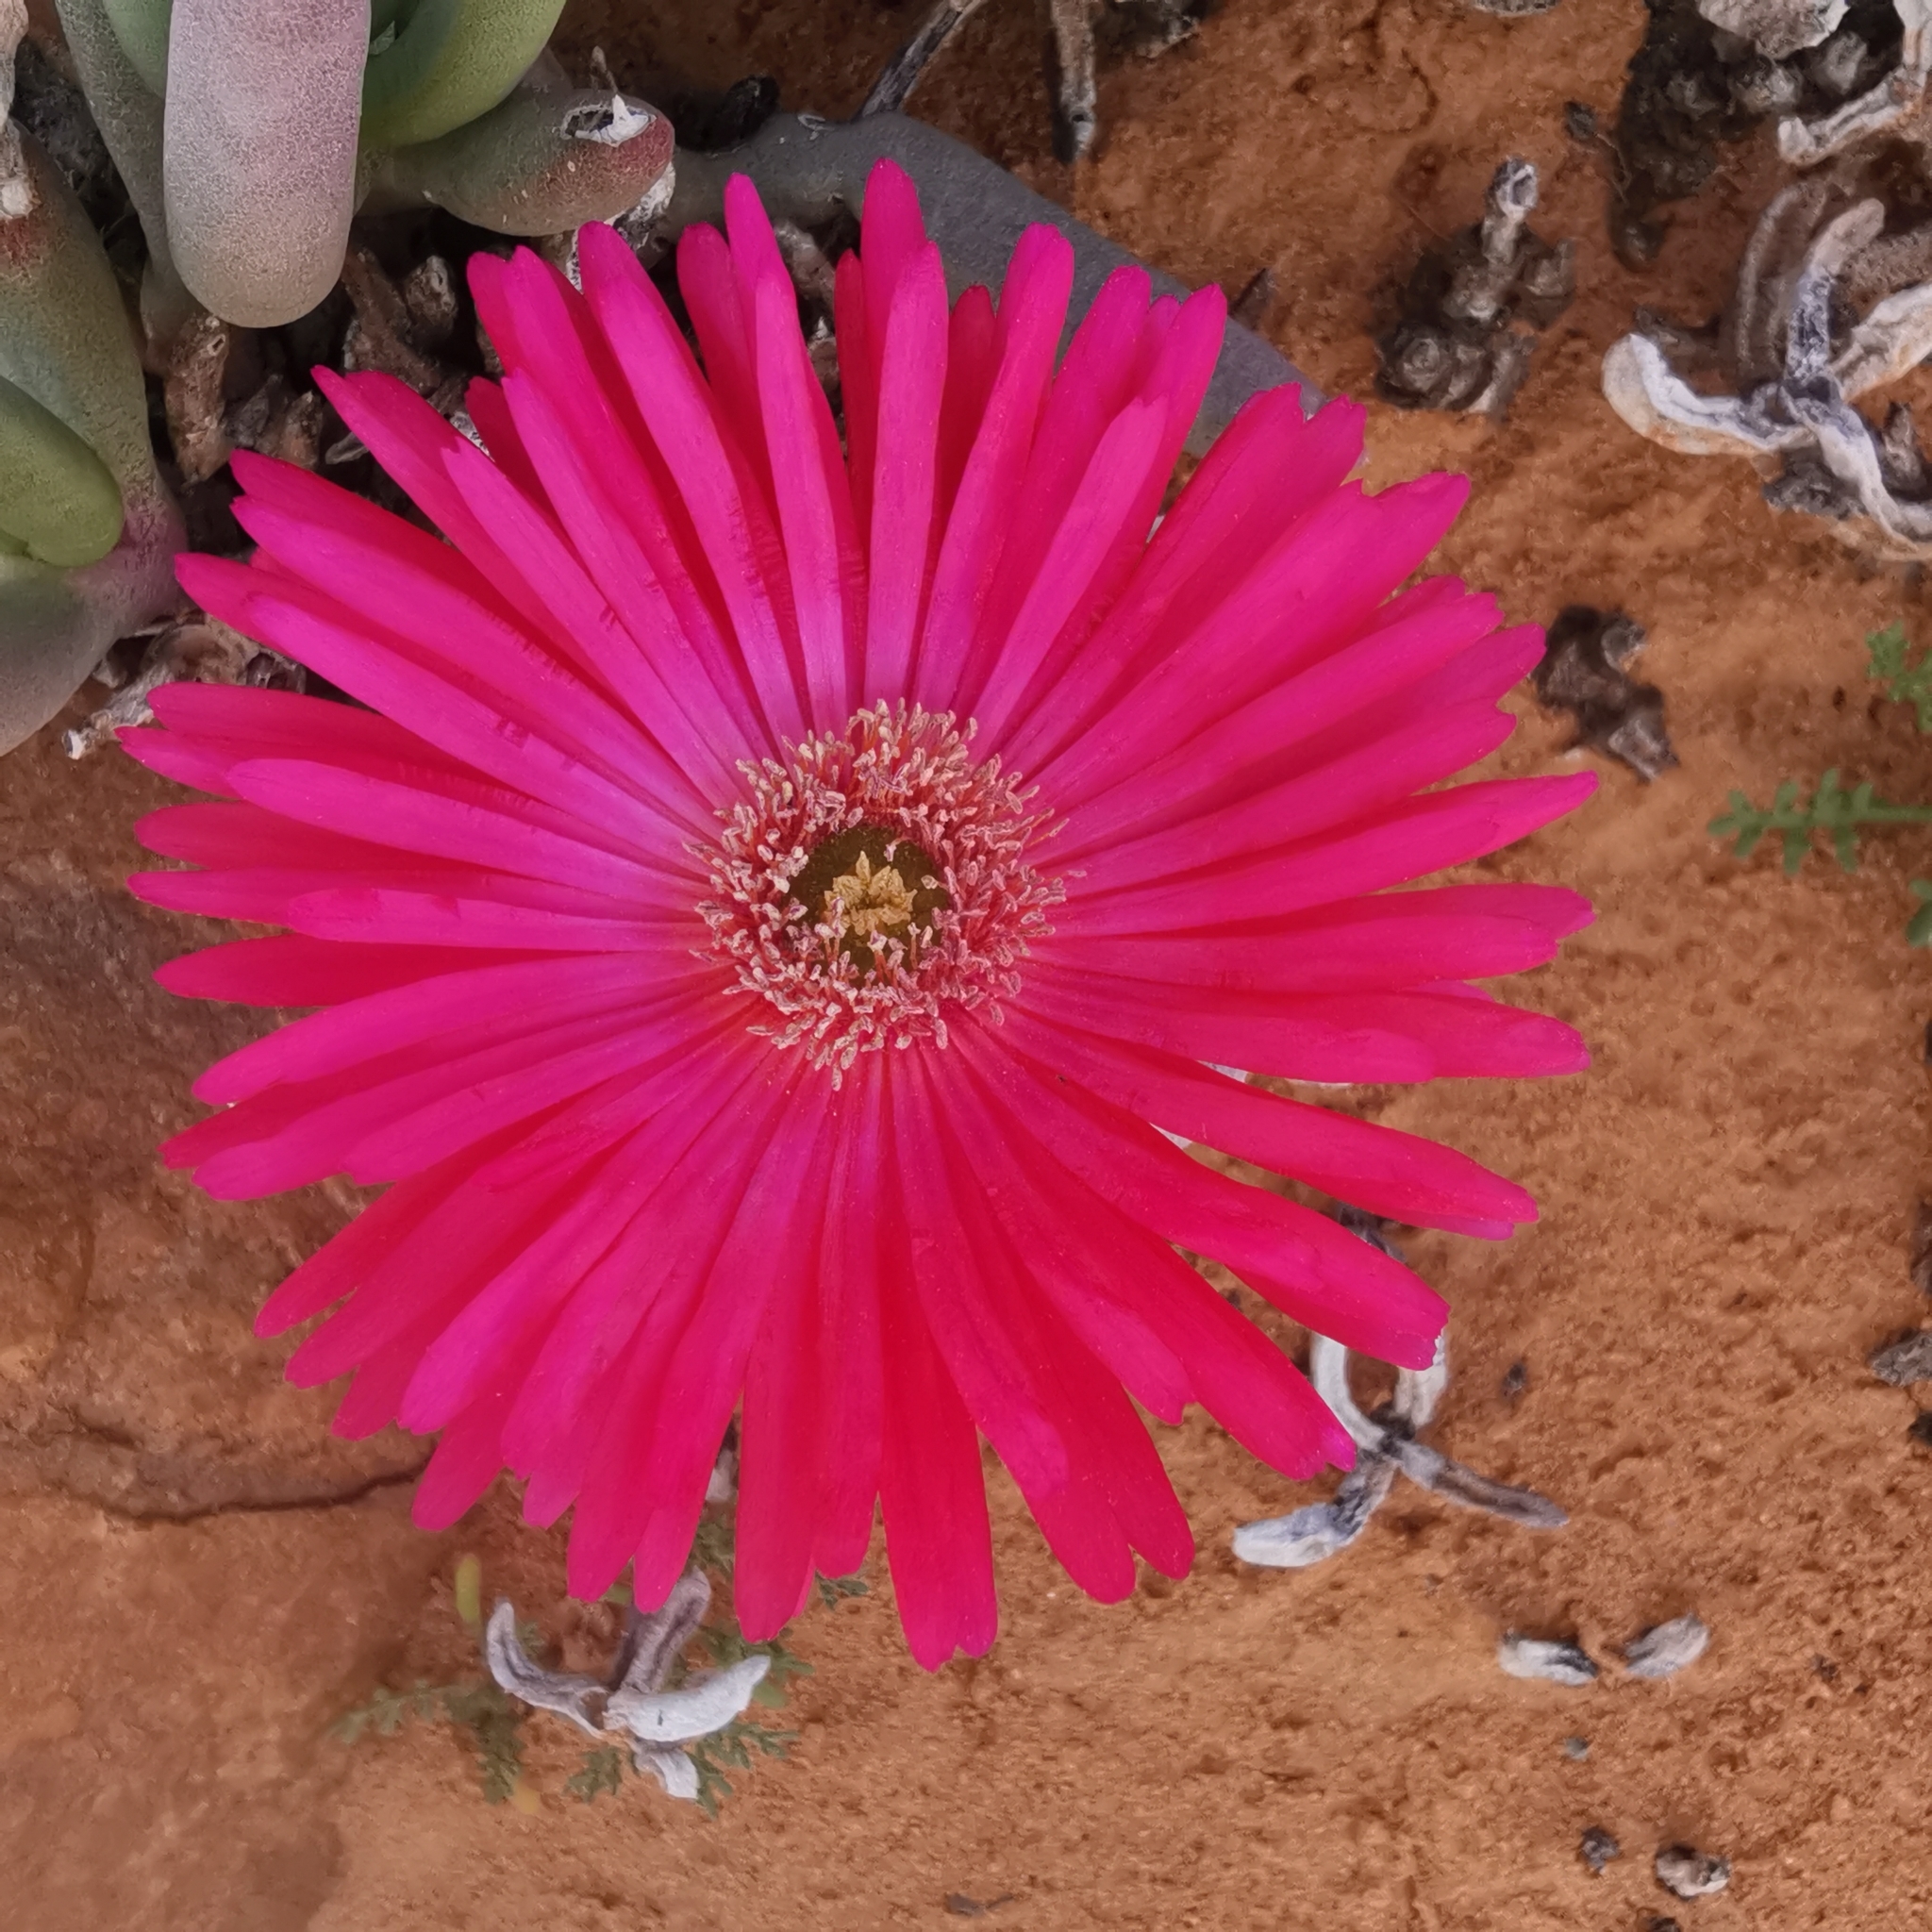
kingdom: Plantae
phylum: Tracheophyta
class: Magnoliopsida
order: Caryophyllales
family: Aizoaceae
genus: Cephalophyllum
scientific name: Cephalophyllum framesii
